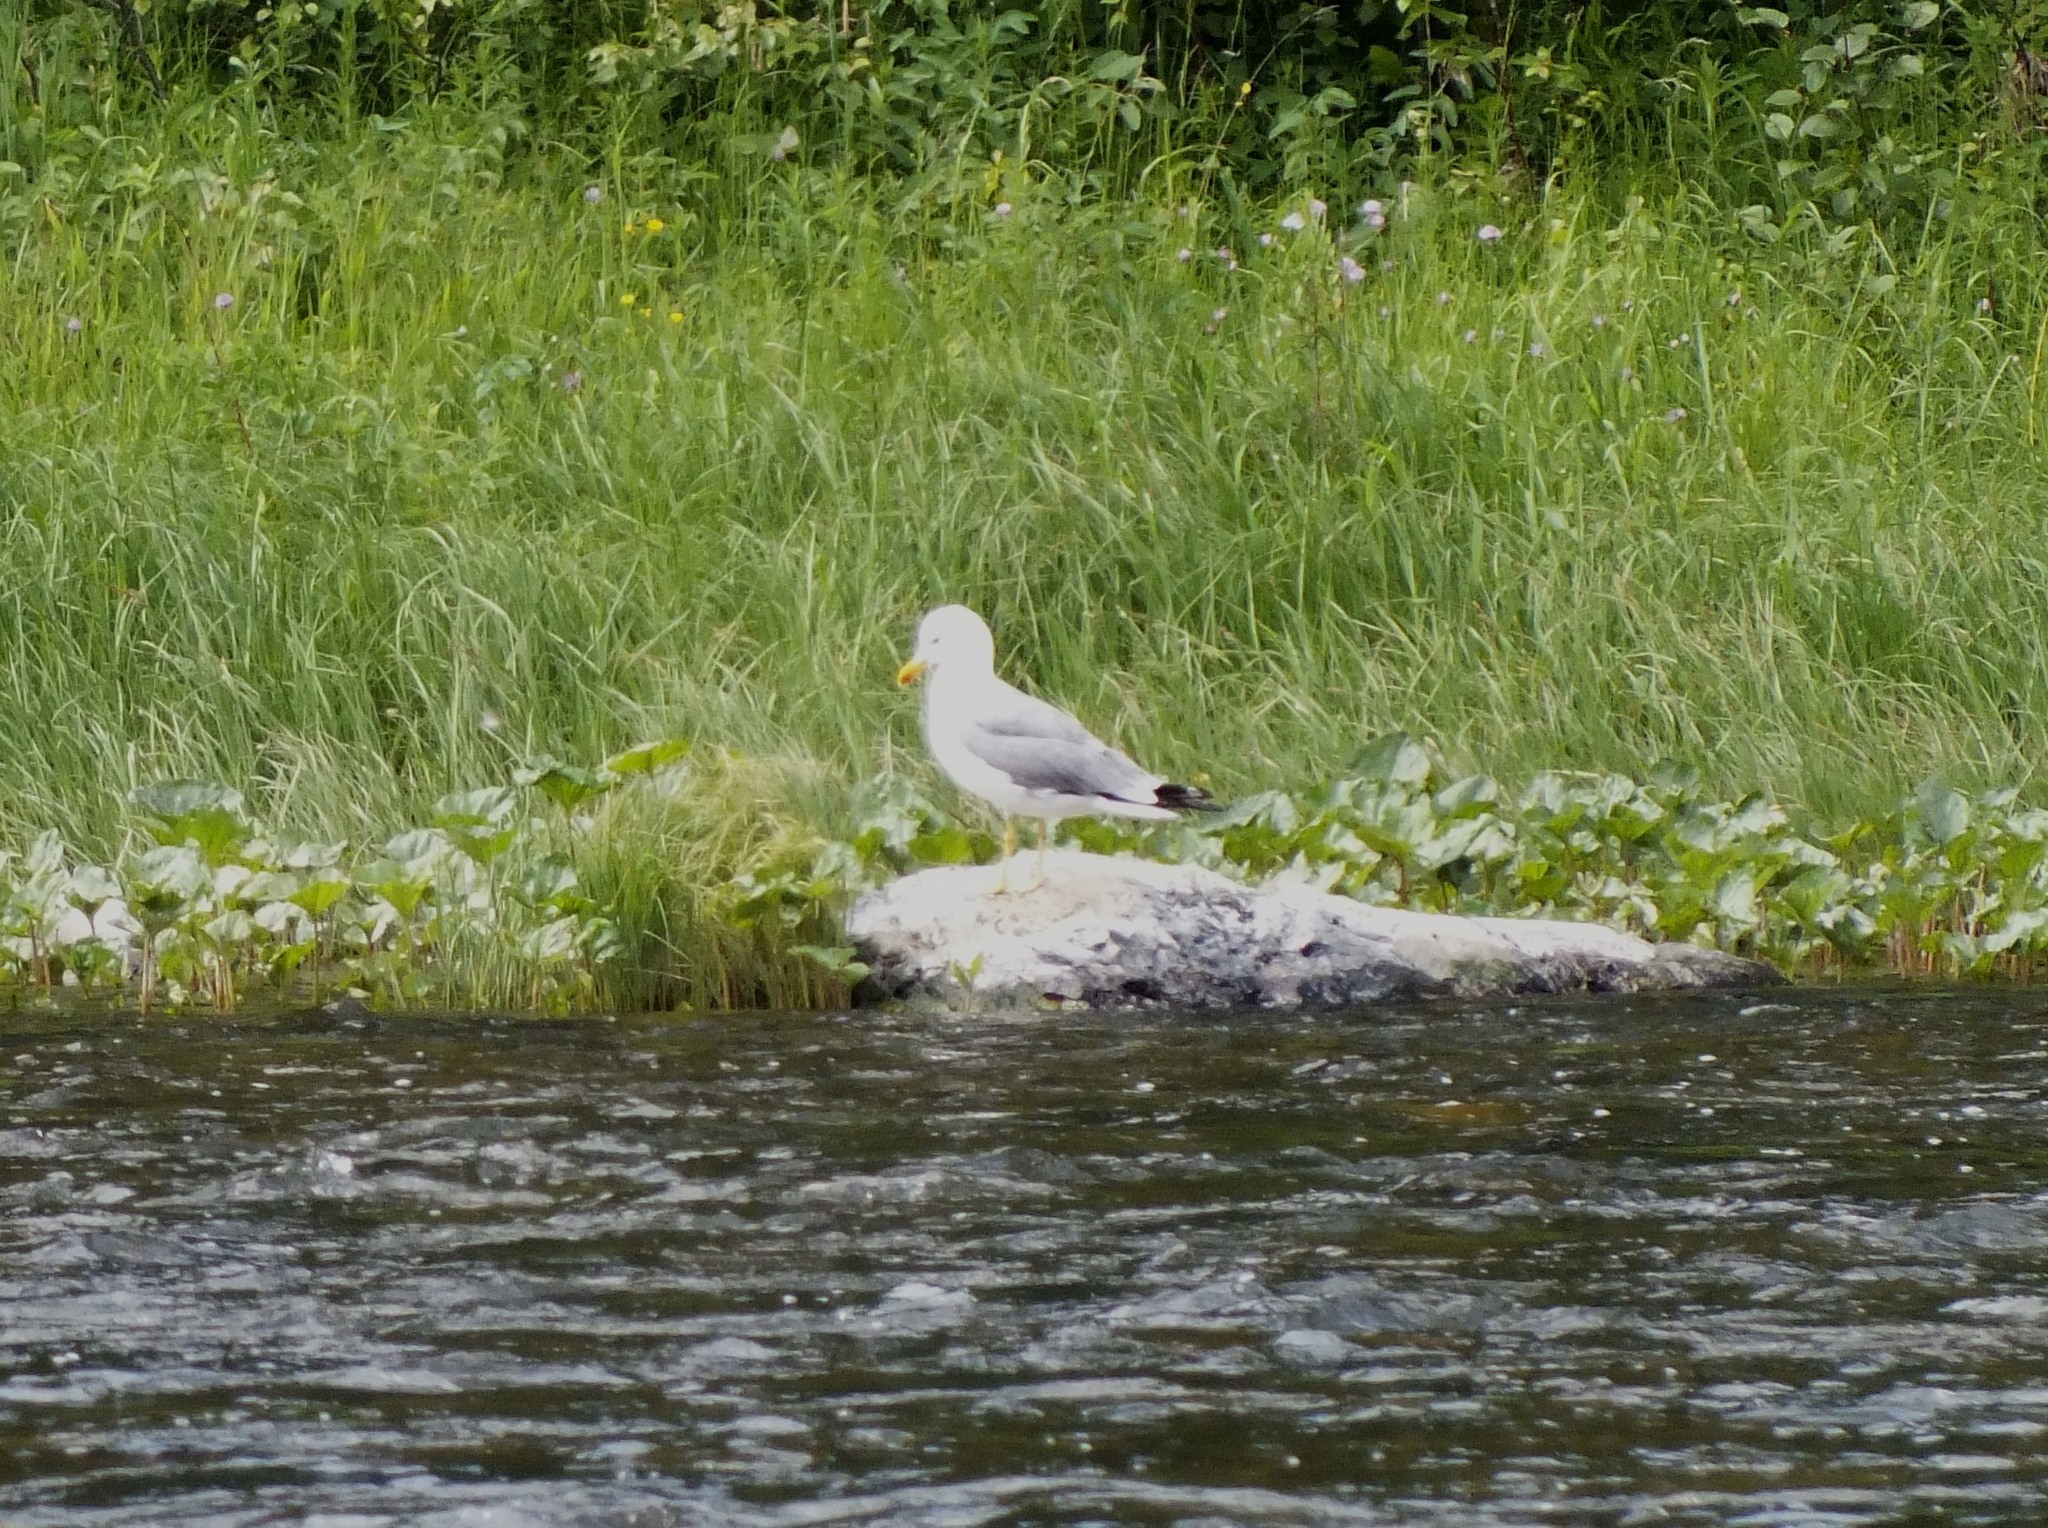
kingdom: Animalia
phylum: Chordata
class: Aves
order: Charadriiformes
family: Laridae
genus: Larus
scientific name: Larus fuscus
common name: Lesser black-backed gull
